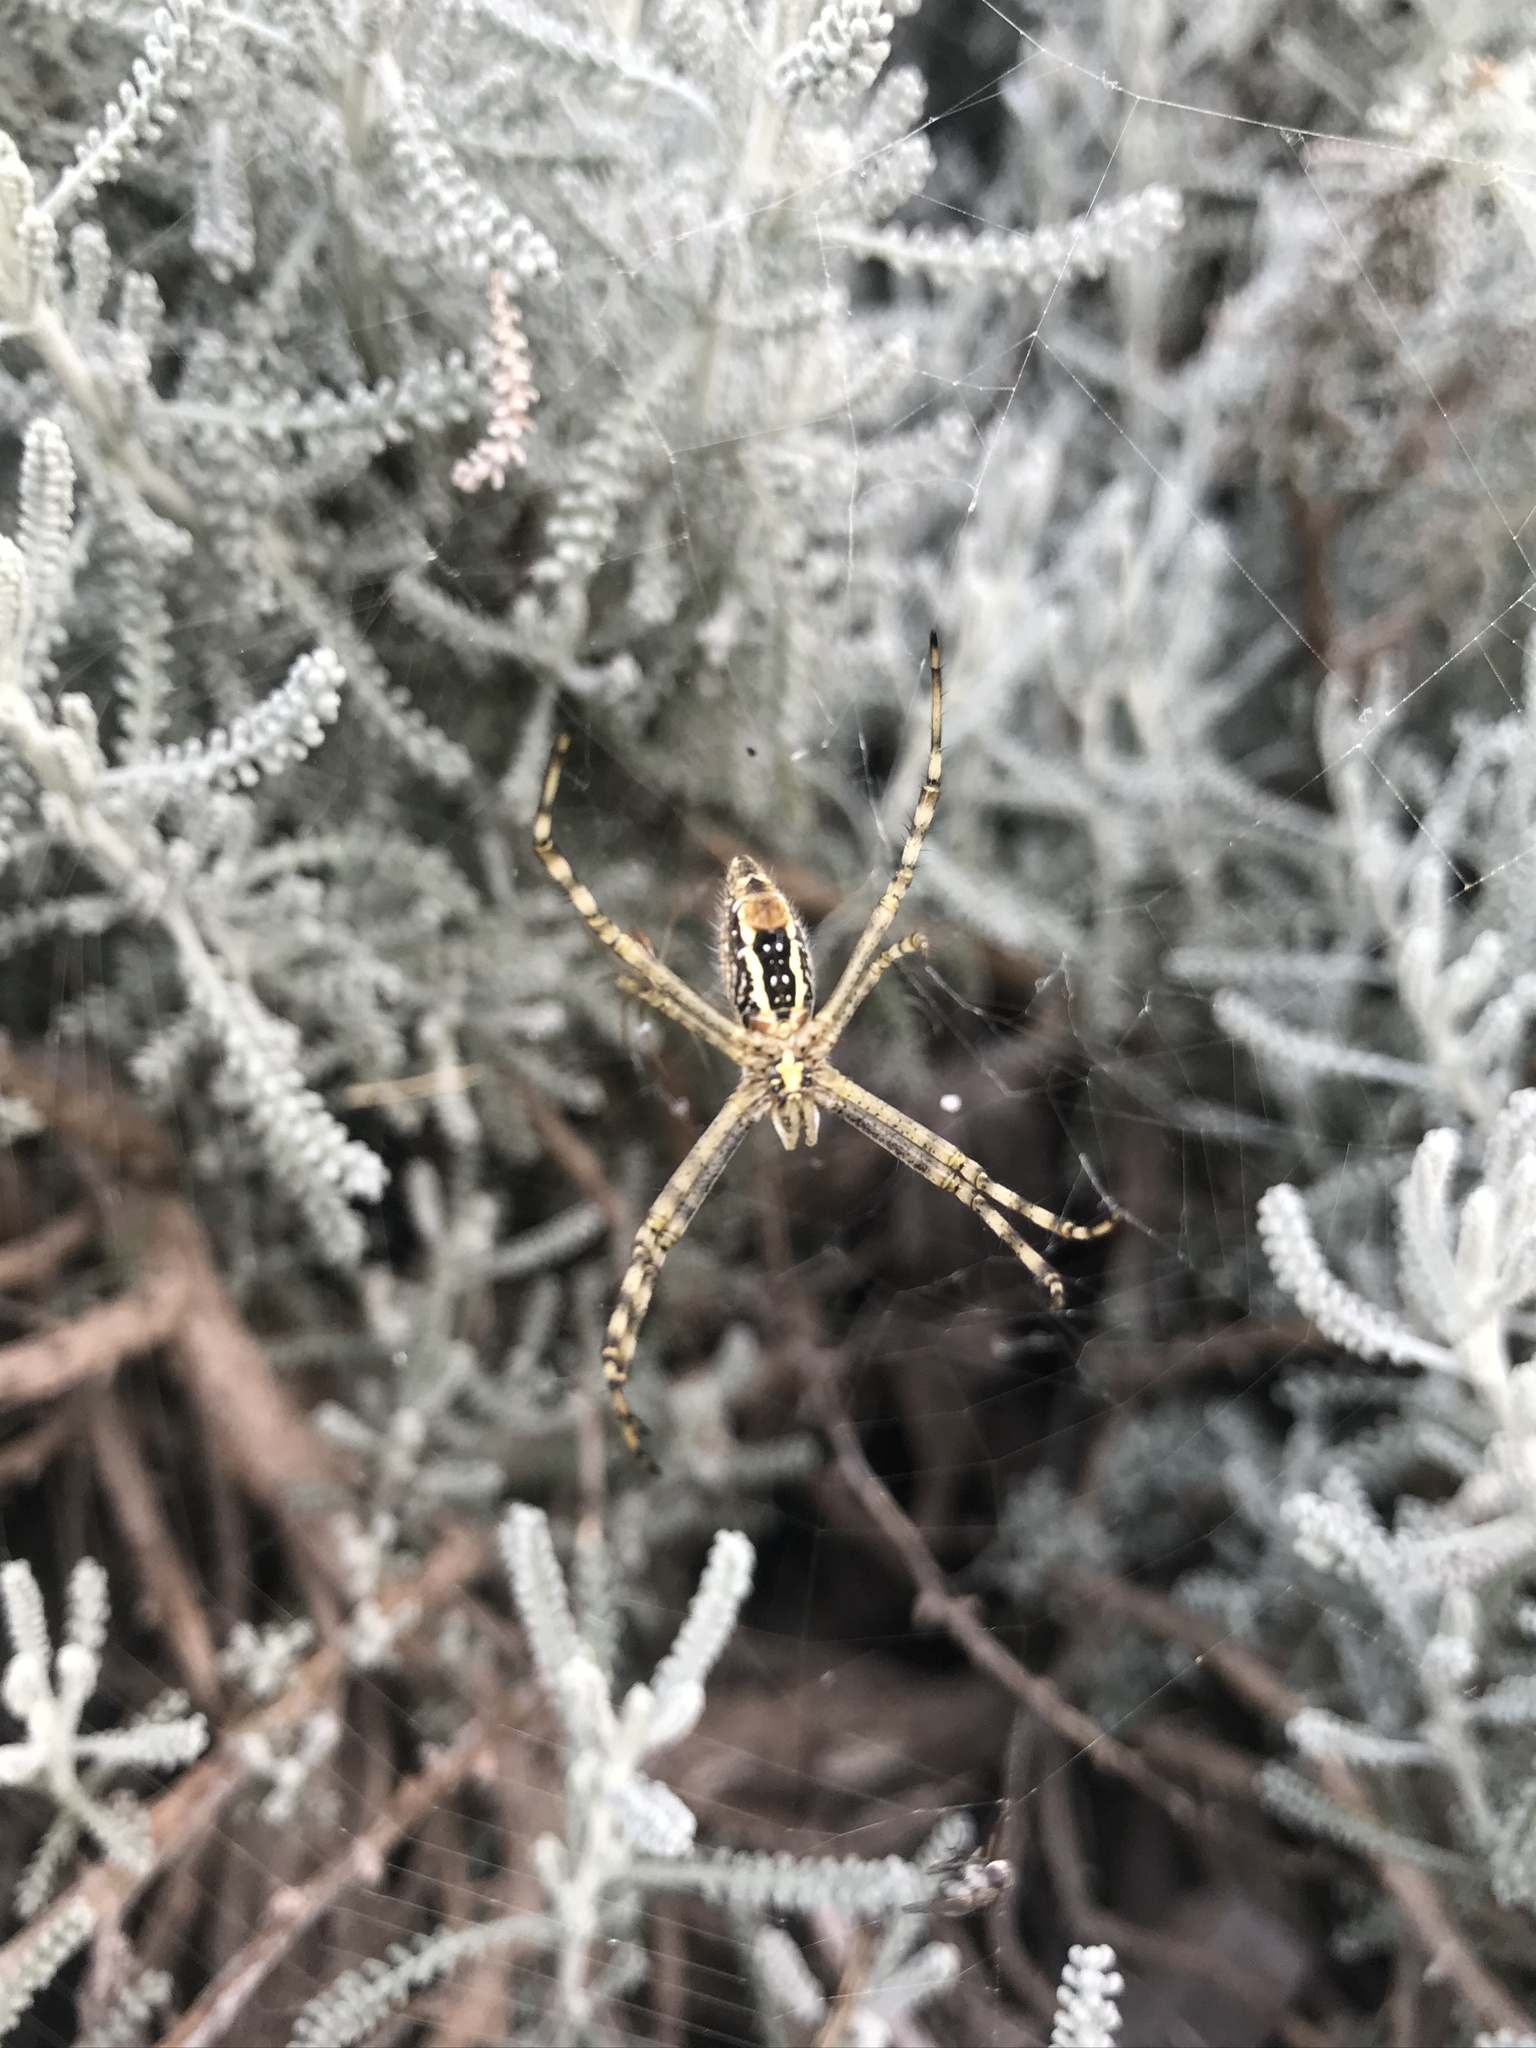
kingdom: Animalia
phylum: Arthropoda
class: Arachnida
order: Araneae
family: Araneidae
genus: Argiope
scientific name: Argiope trifasciata
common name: Banded garden spider
